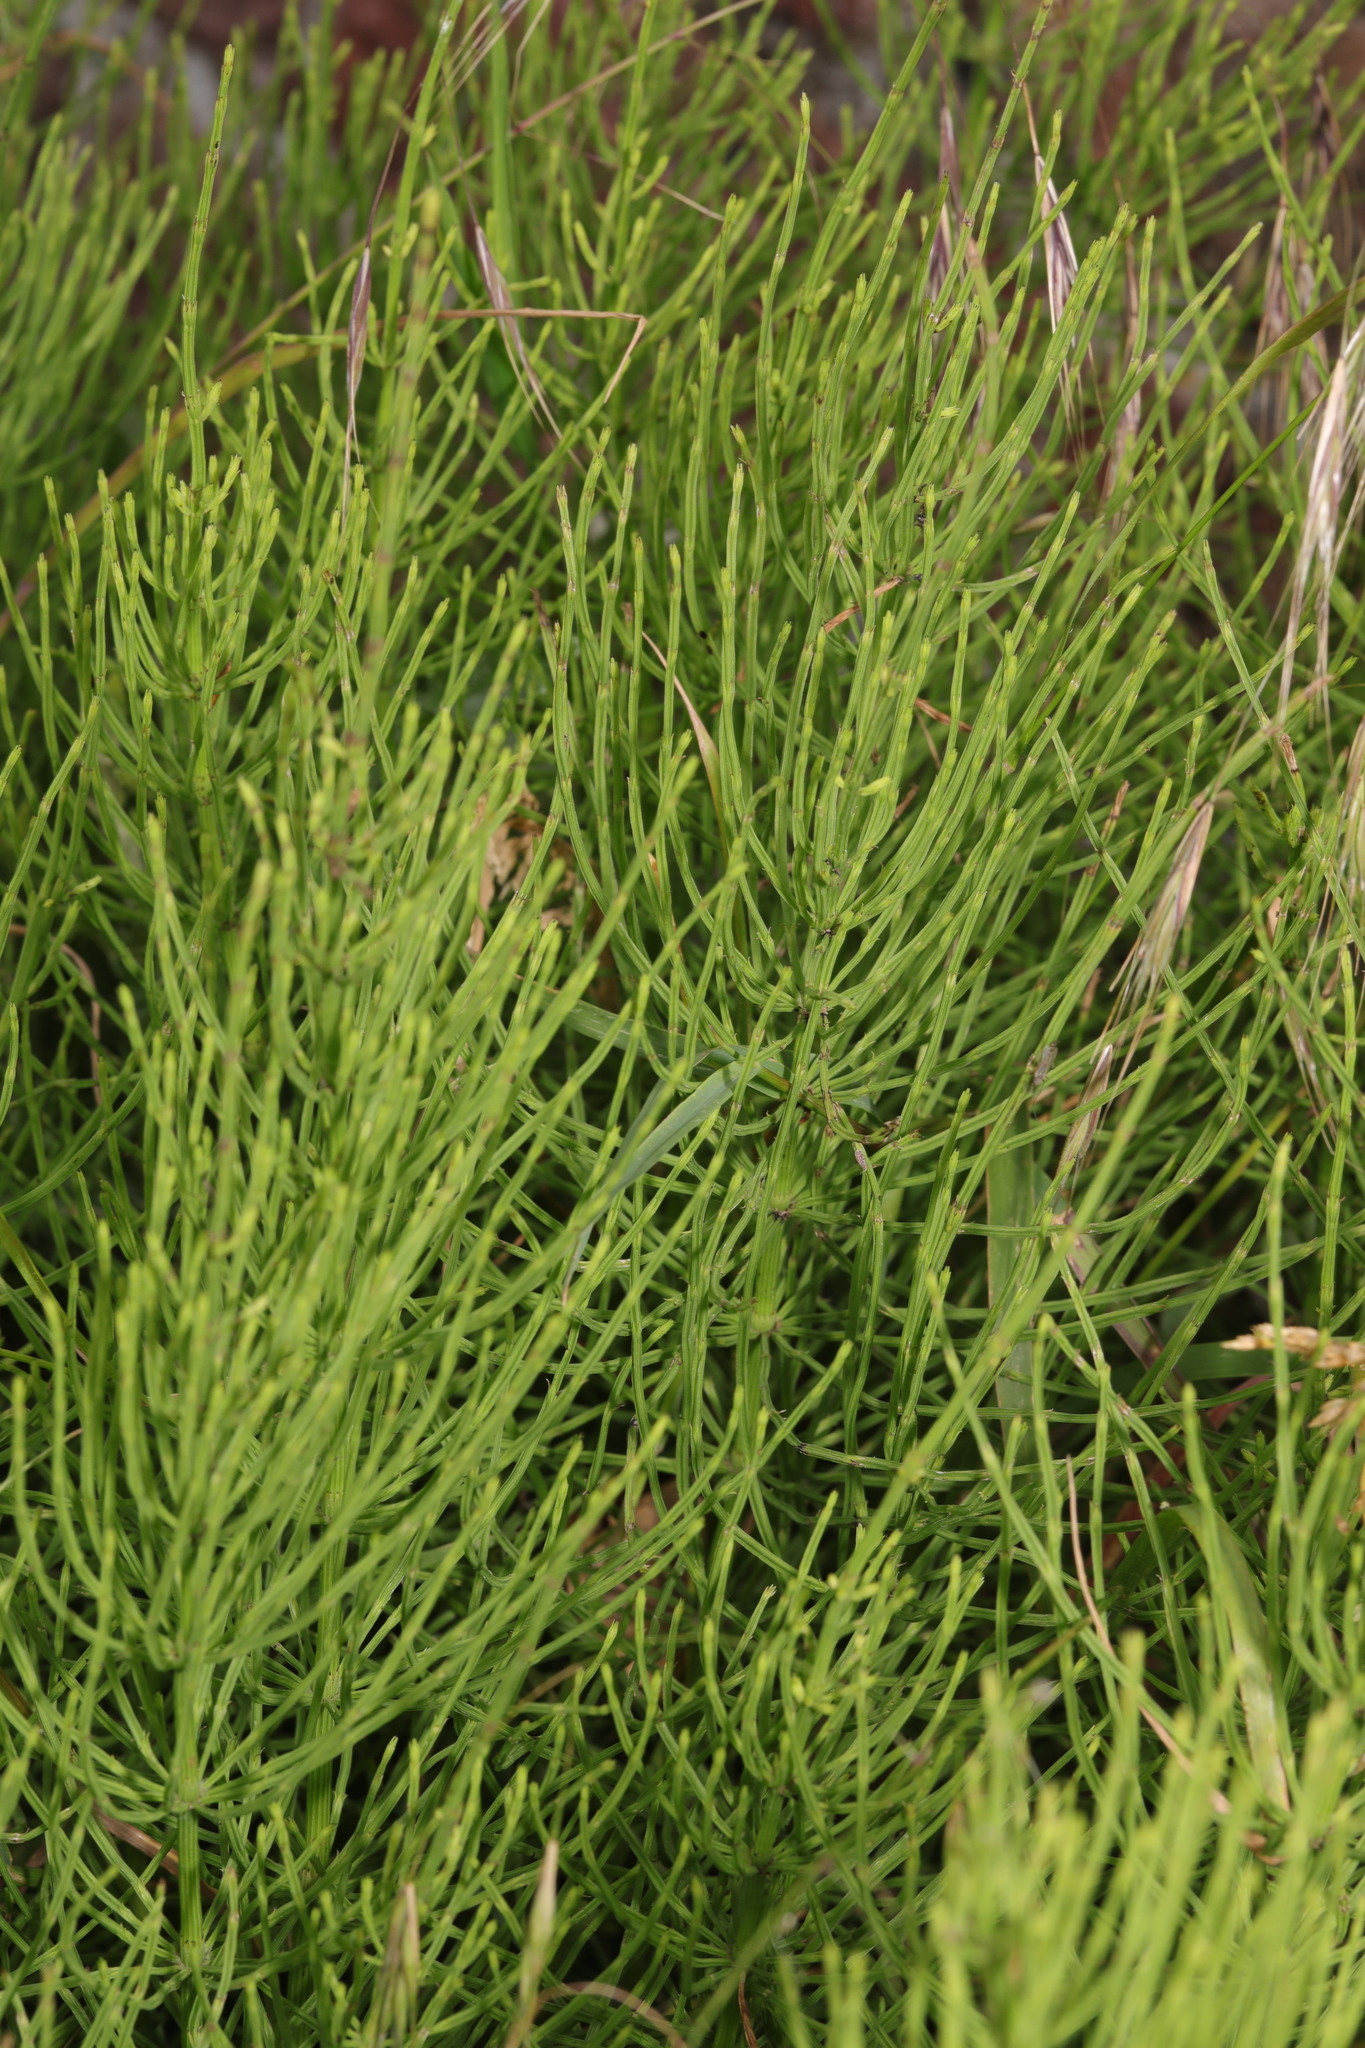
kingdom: Plantae
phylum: Tracheophyta
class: Polypodiopsida
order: Equisetales
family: Equisetaceae
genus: Equisetum
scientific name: Equisetum arvense
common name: Field horsetail
